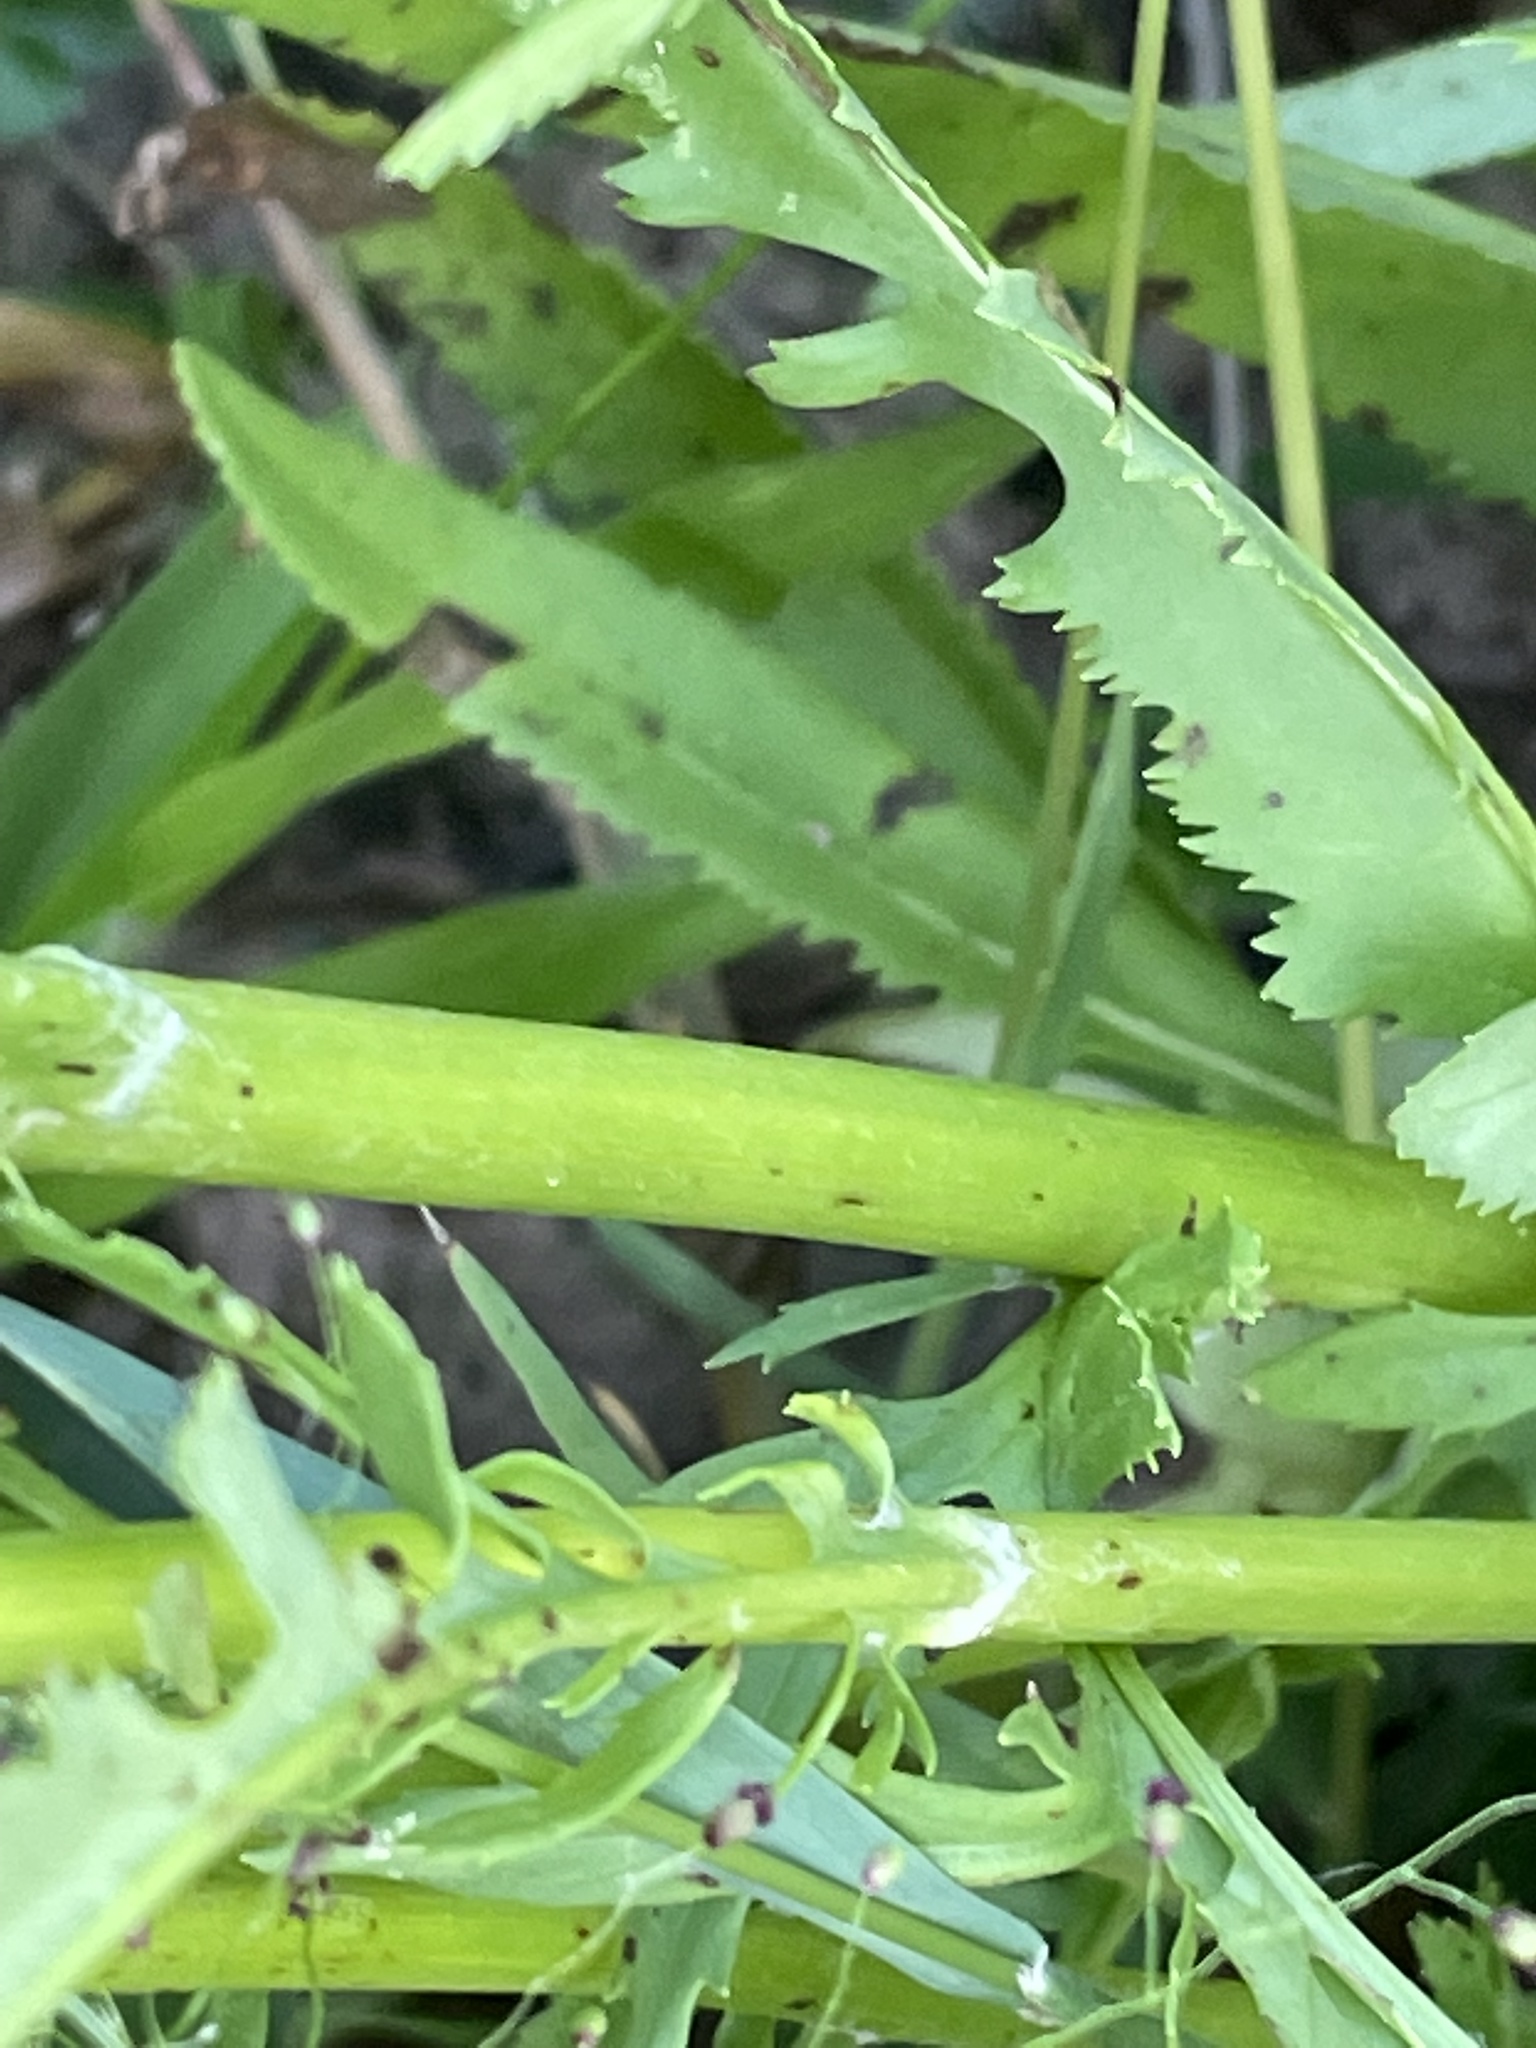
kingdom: Plantae
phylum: Tracheophyta
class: Magnoliopsida
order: Asterales
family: Asteraceae
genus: Packera
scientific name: Packera anonyma
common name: Small ragwort
